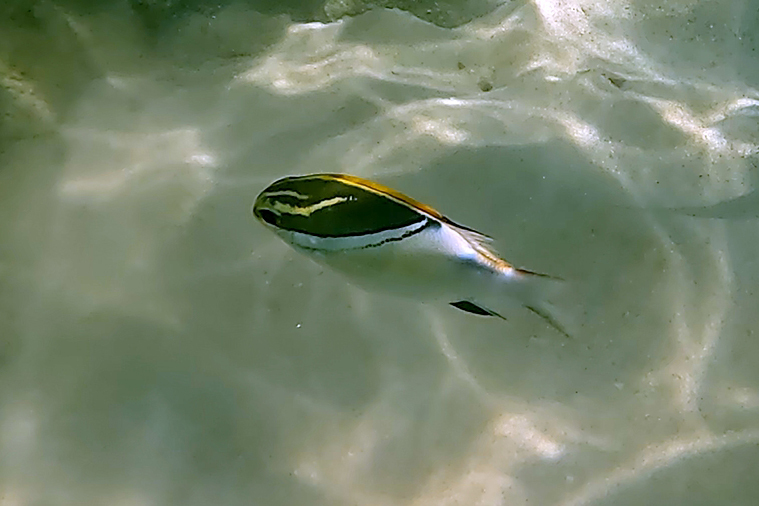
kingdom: Animalia
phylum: Chordata
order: Perciformes
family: Nemipteridae
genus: Scolopsis
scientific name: Scolopsis bilineata
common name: Two-lined monocle bream
